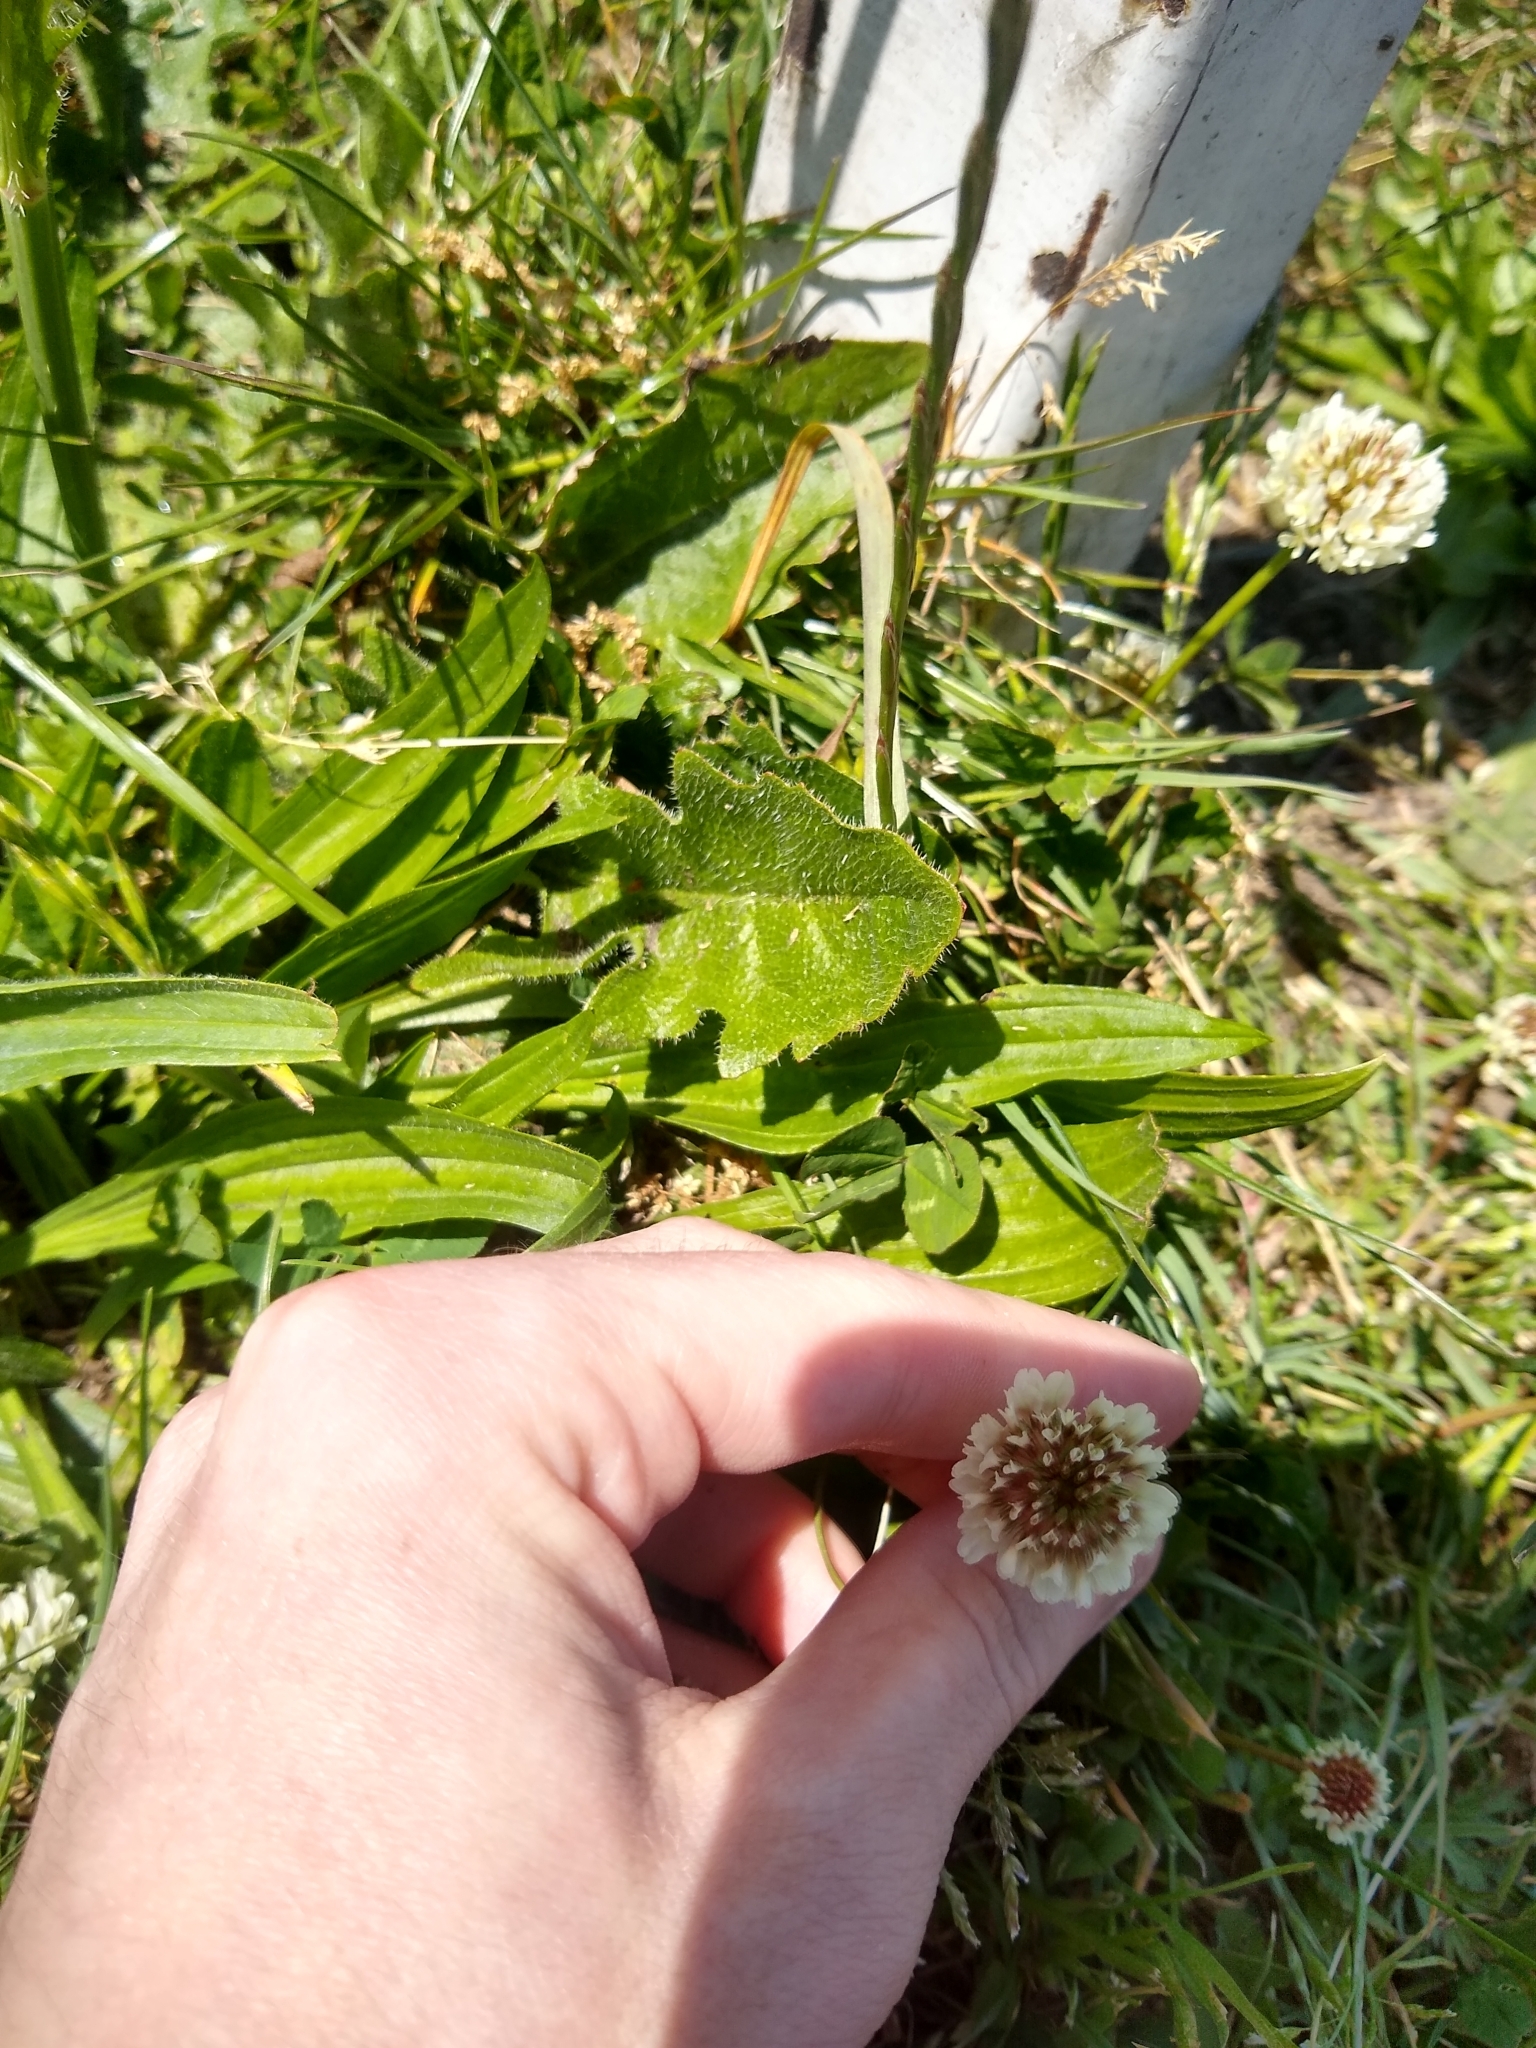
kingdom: Plantae
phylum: Tracheophyta
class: Magnoliopsida
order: Fabales
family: Fabaceae
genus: Trifolium
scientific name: Trifolium repens
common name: White clover
